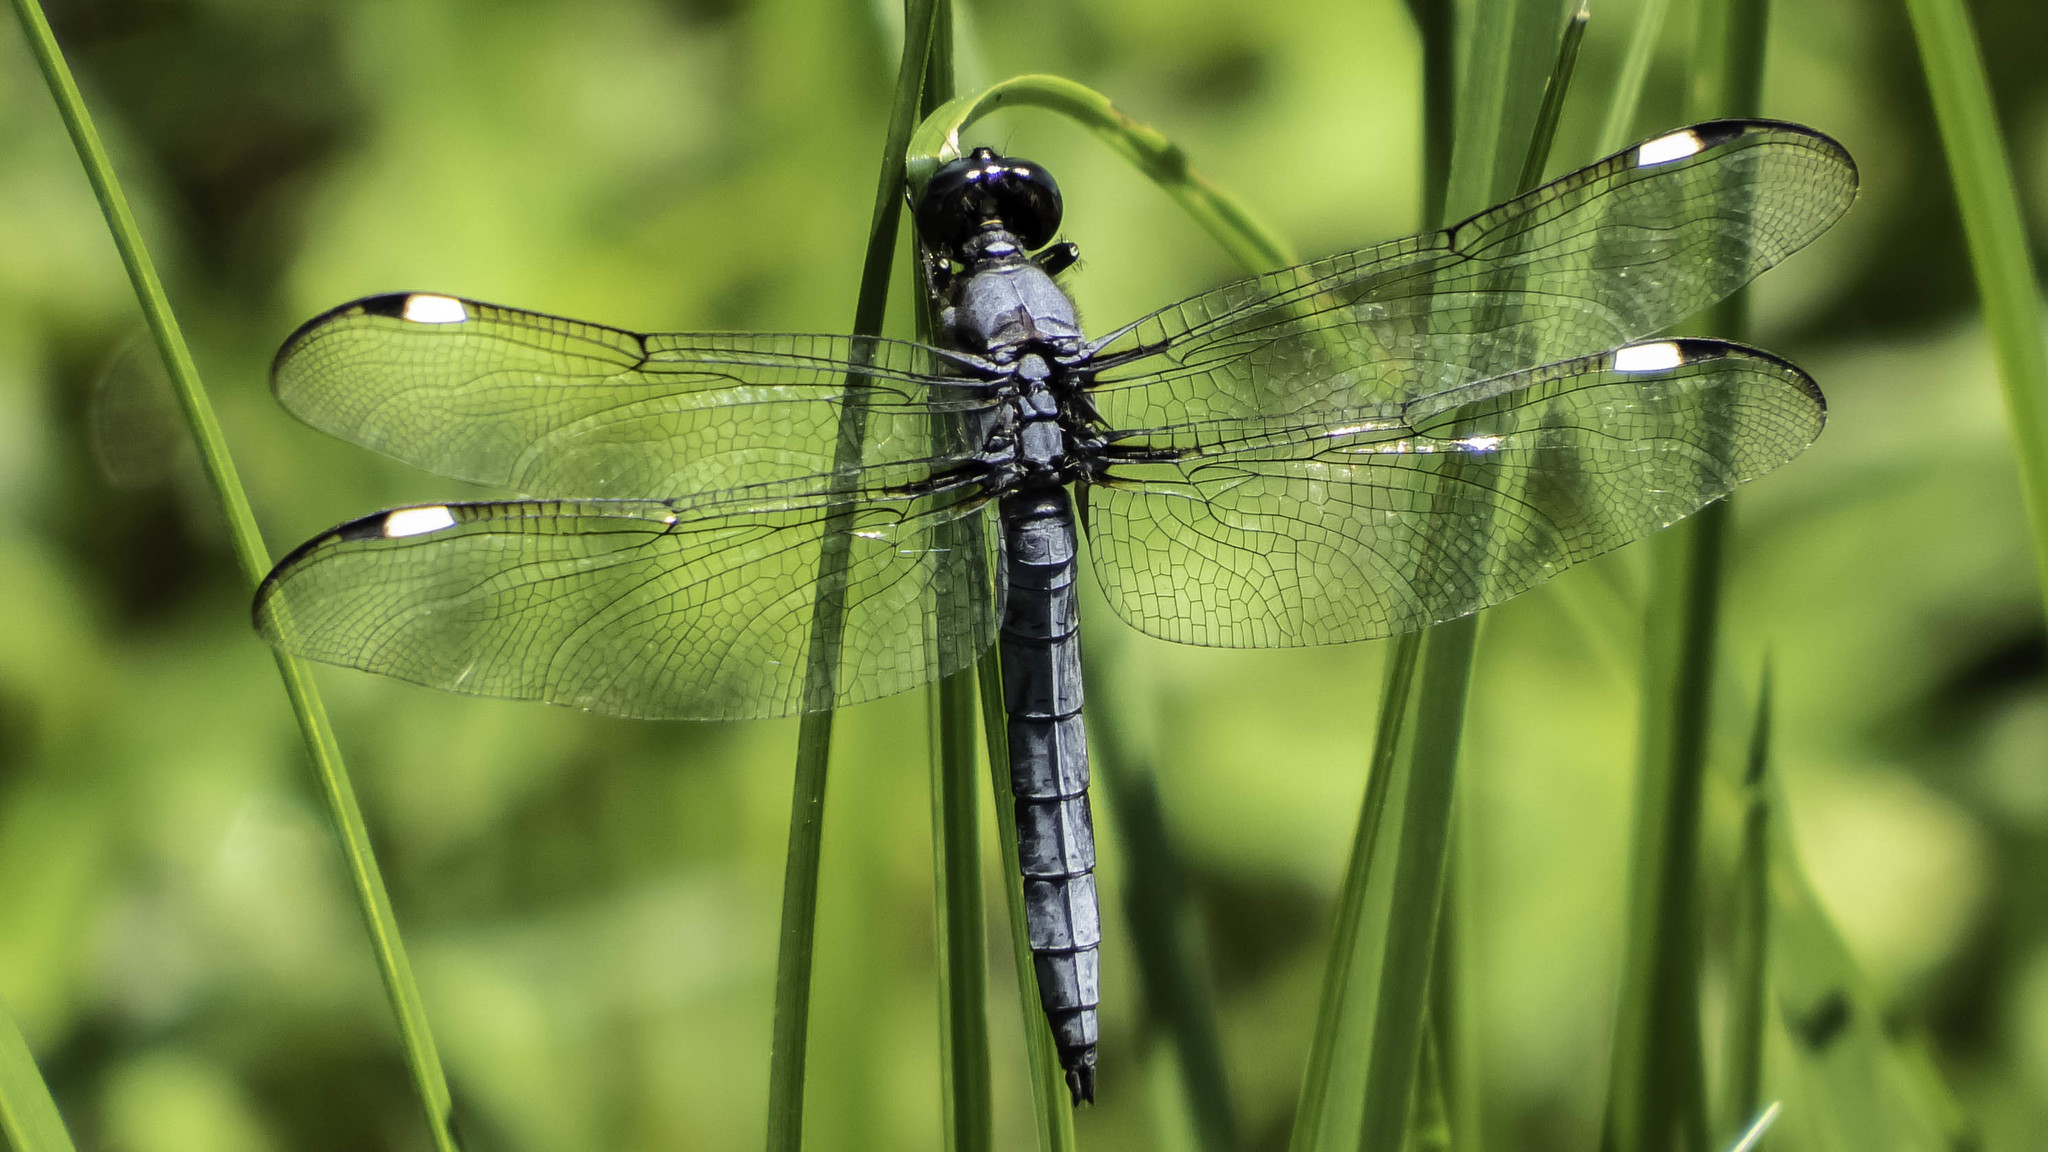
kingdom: Animalia
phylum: Arthropoda
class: Insecta
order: Odonata
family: Libellulidae
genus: Libellula
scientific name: Libellula cyanea
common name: Spangled skimmer
